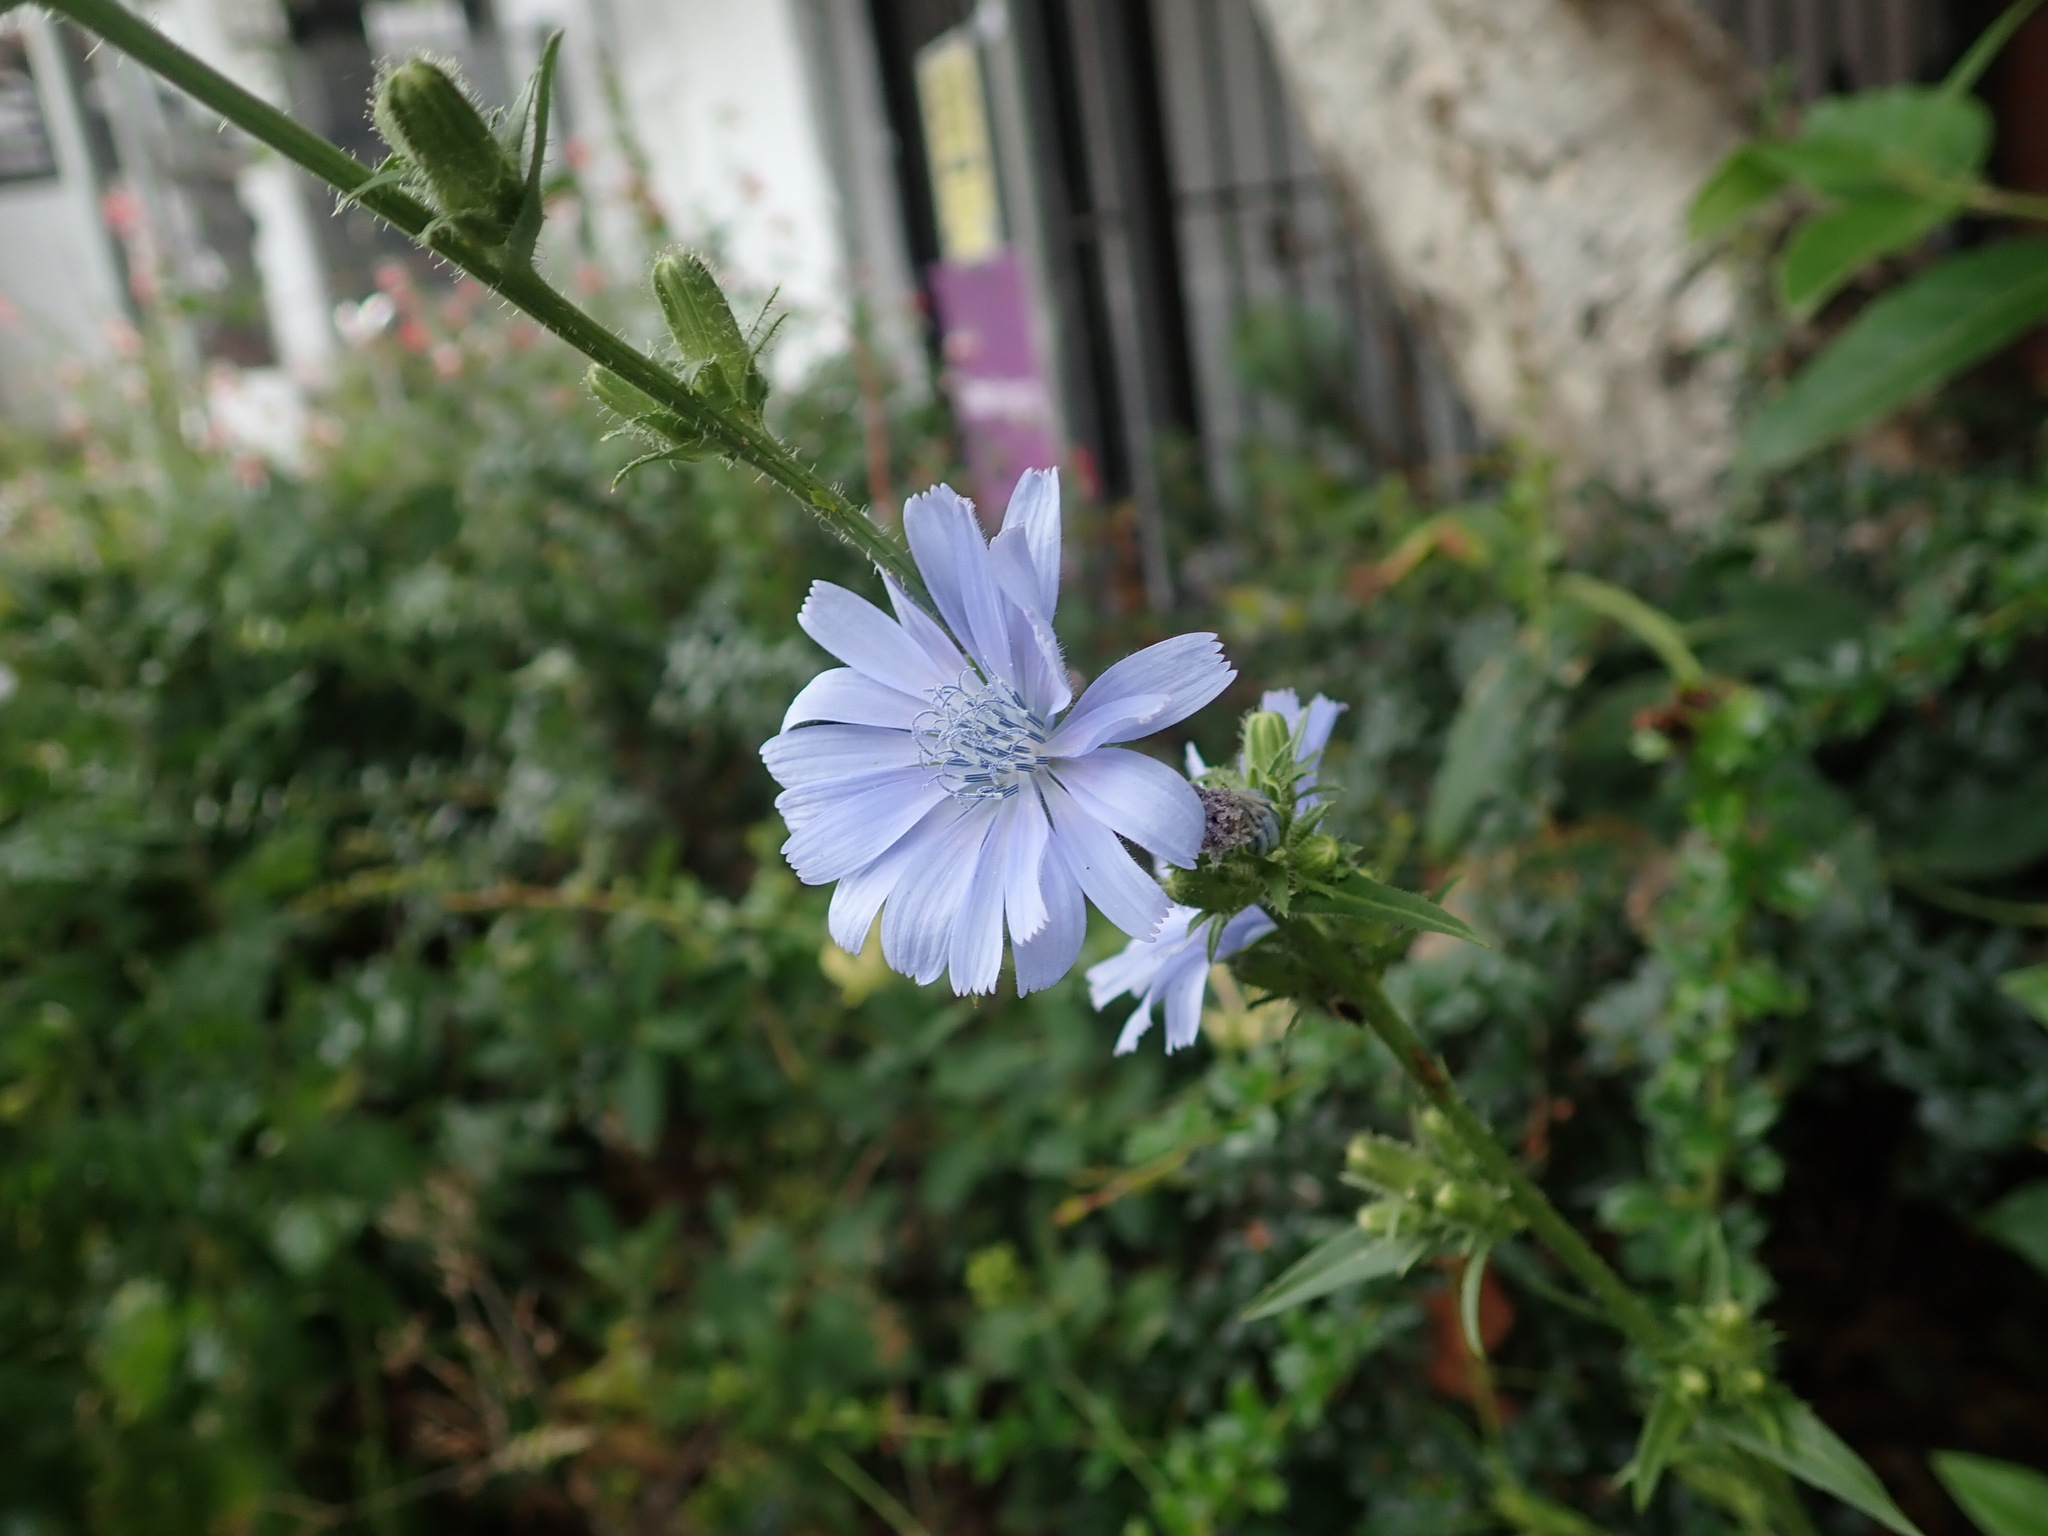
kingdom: Plantae
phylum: Tracheophyta
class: Magnoliopsida
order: Asterales
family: Asteraceae
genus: Cichorium
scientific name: Cichorium intybus
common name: Chicory
